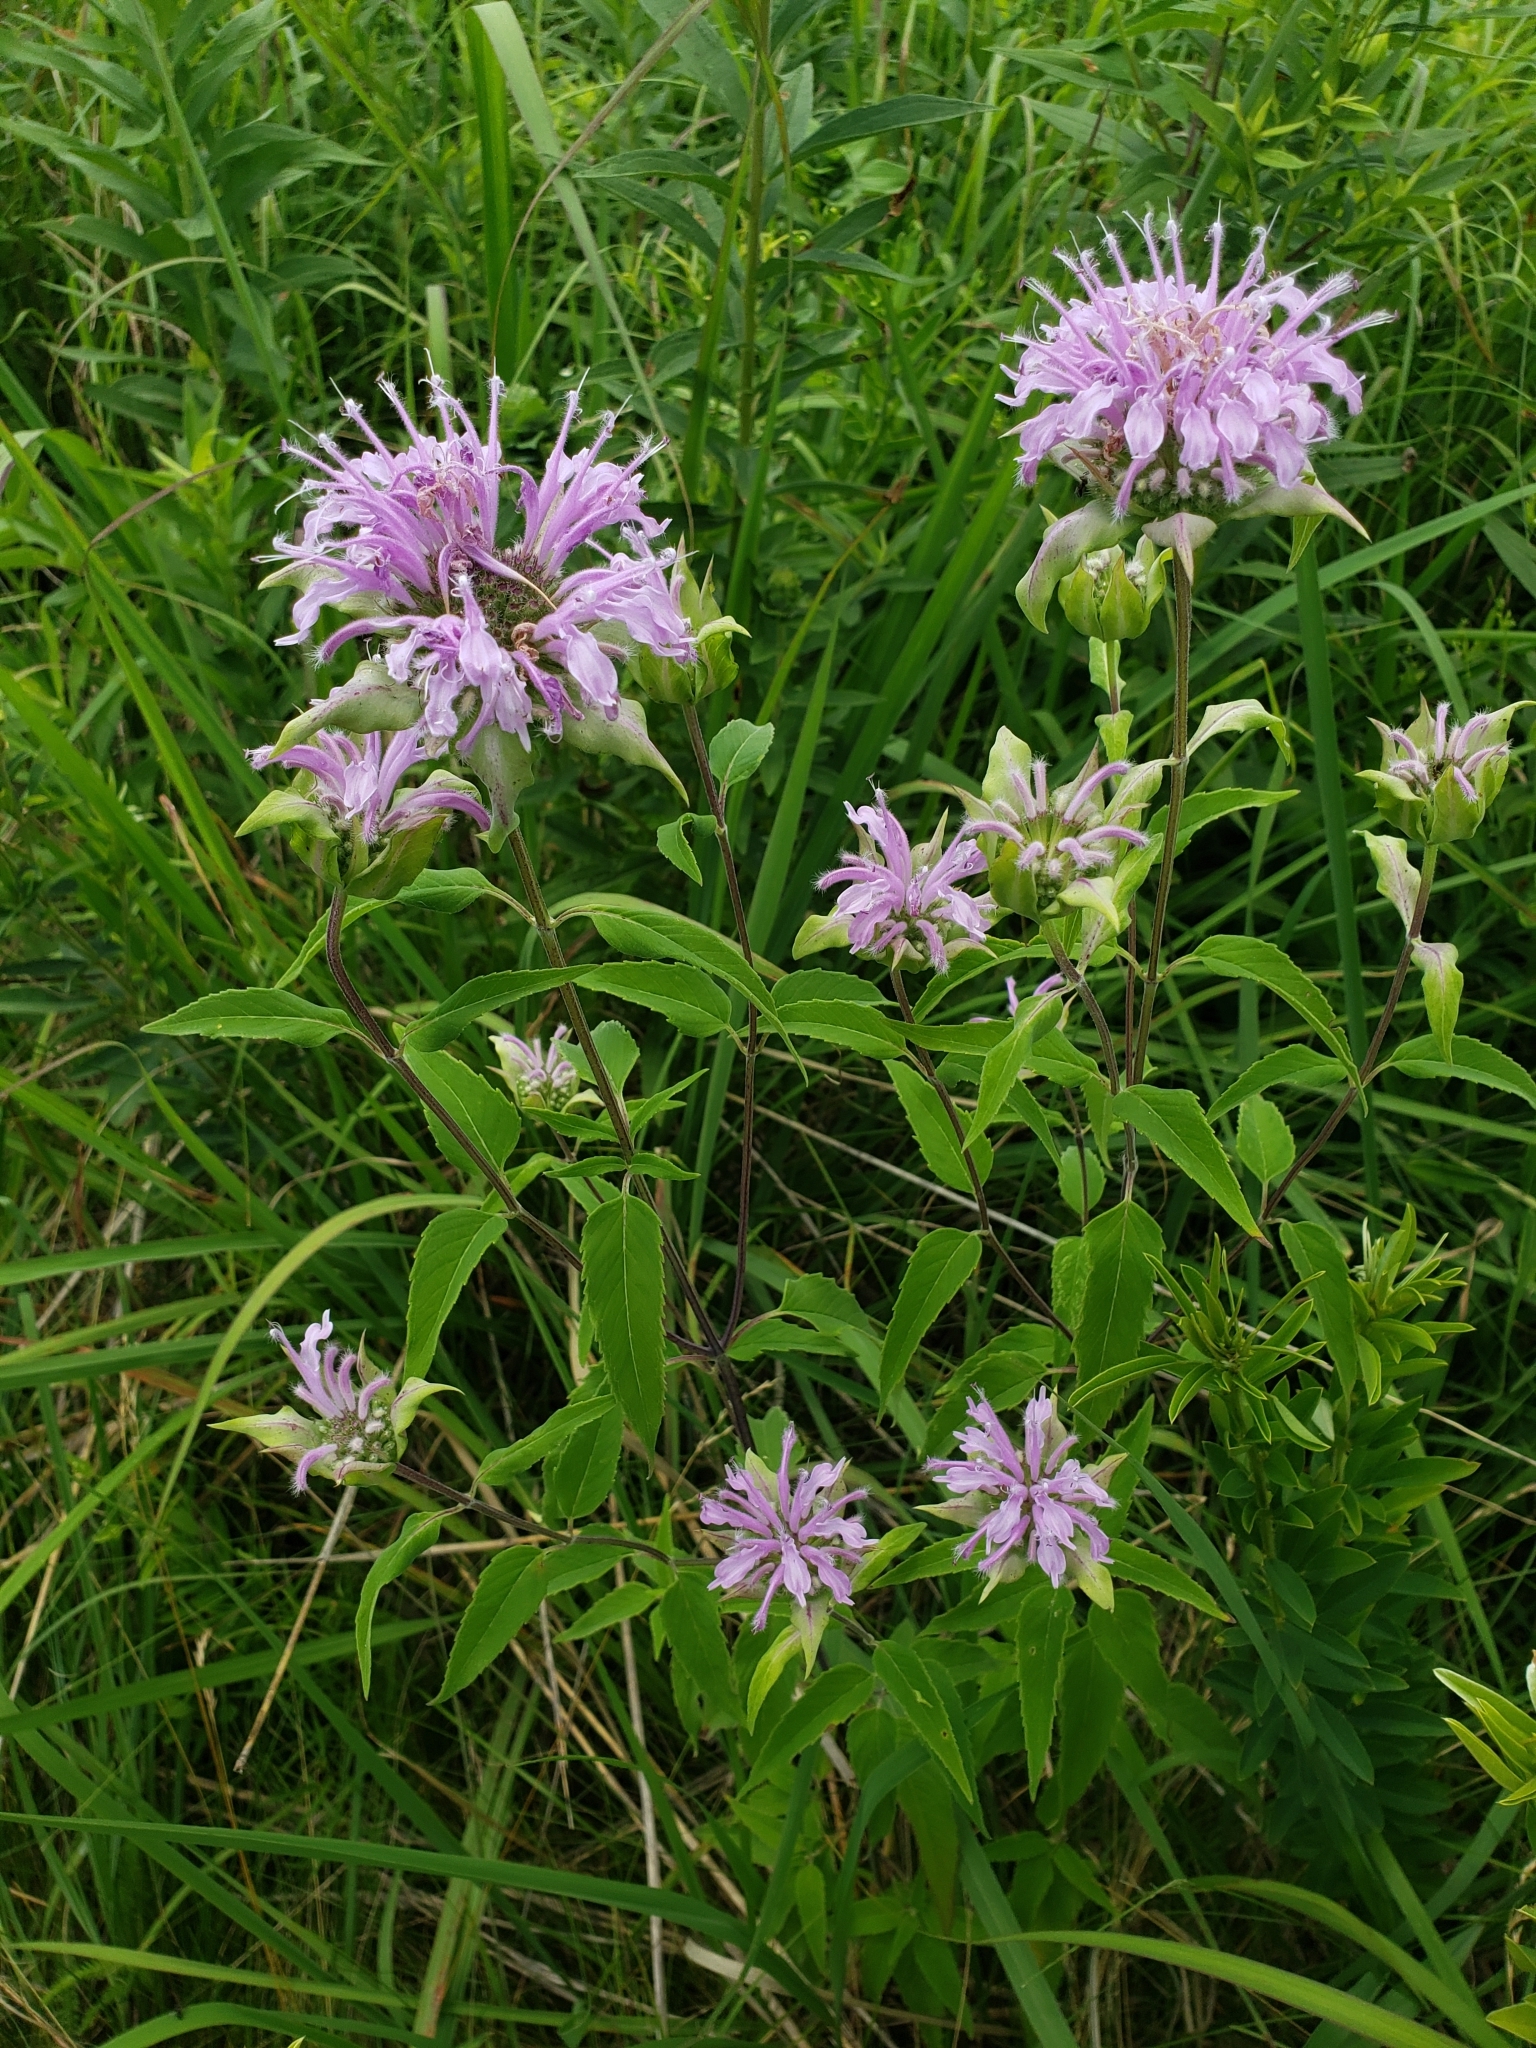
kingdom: Plantae
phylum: Tracheophyta
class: Magnoliopsida
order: Lamiales
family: Lamiaceae
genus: Monarda
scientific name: Monarda fistulosa
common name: Purple beebalm
